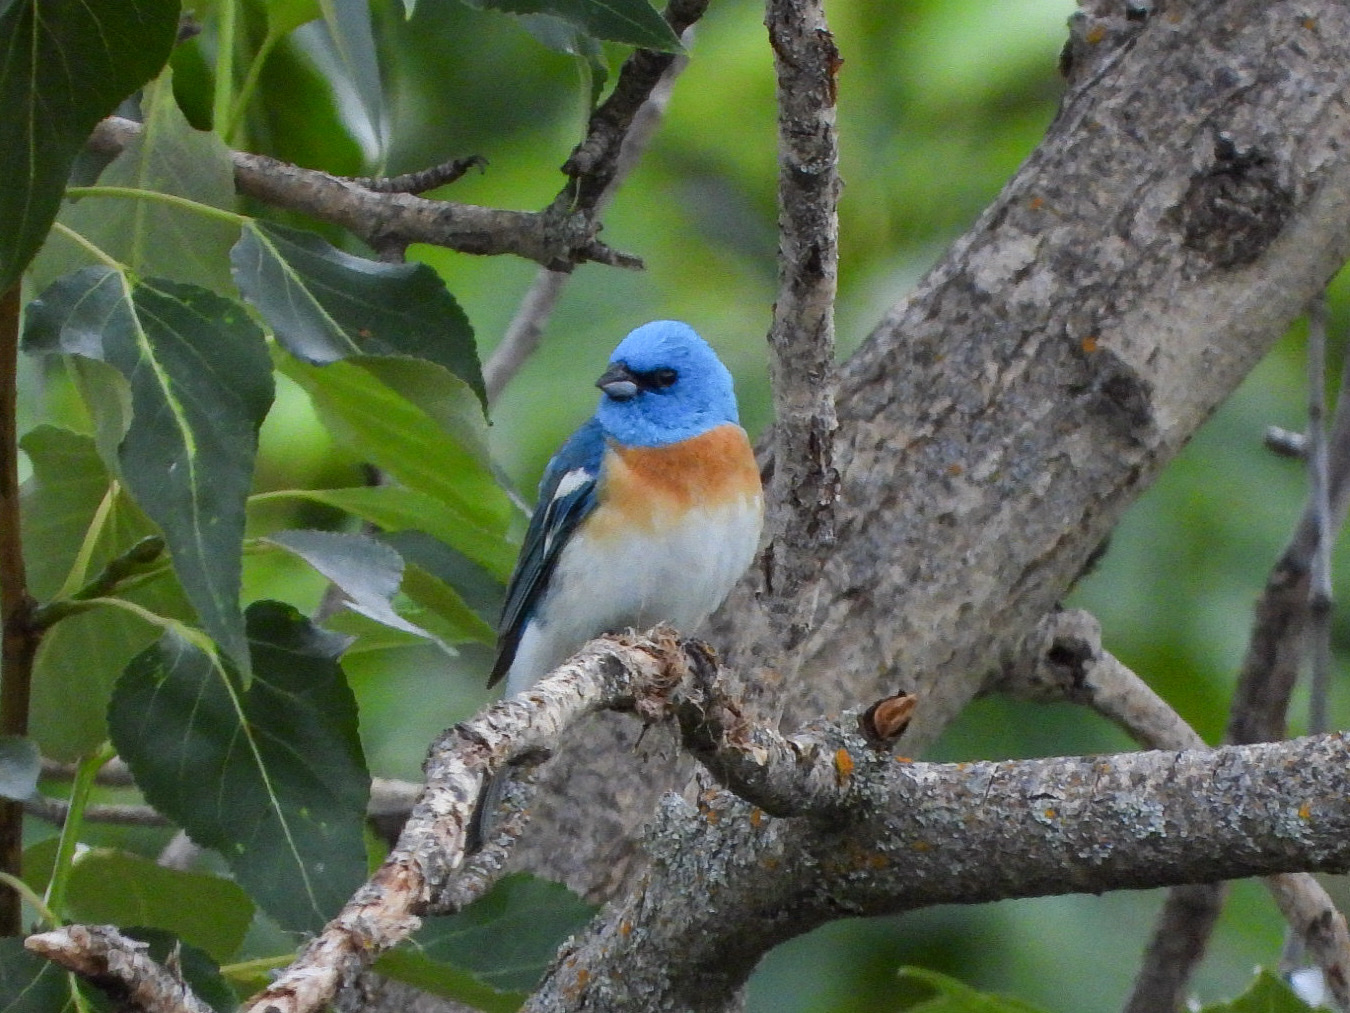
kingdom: Animalia
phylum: Chordata
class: Aves
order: Passeriformes
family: Cardinalidae
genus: Passerina
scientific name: Passerina amoena
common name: Lazuli bunting
